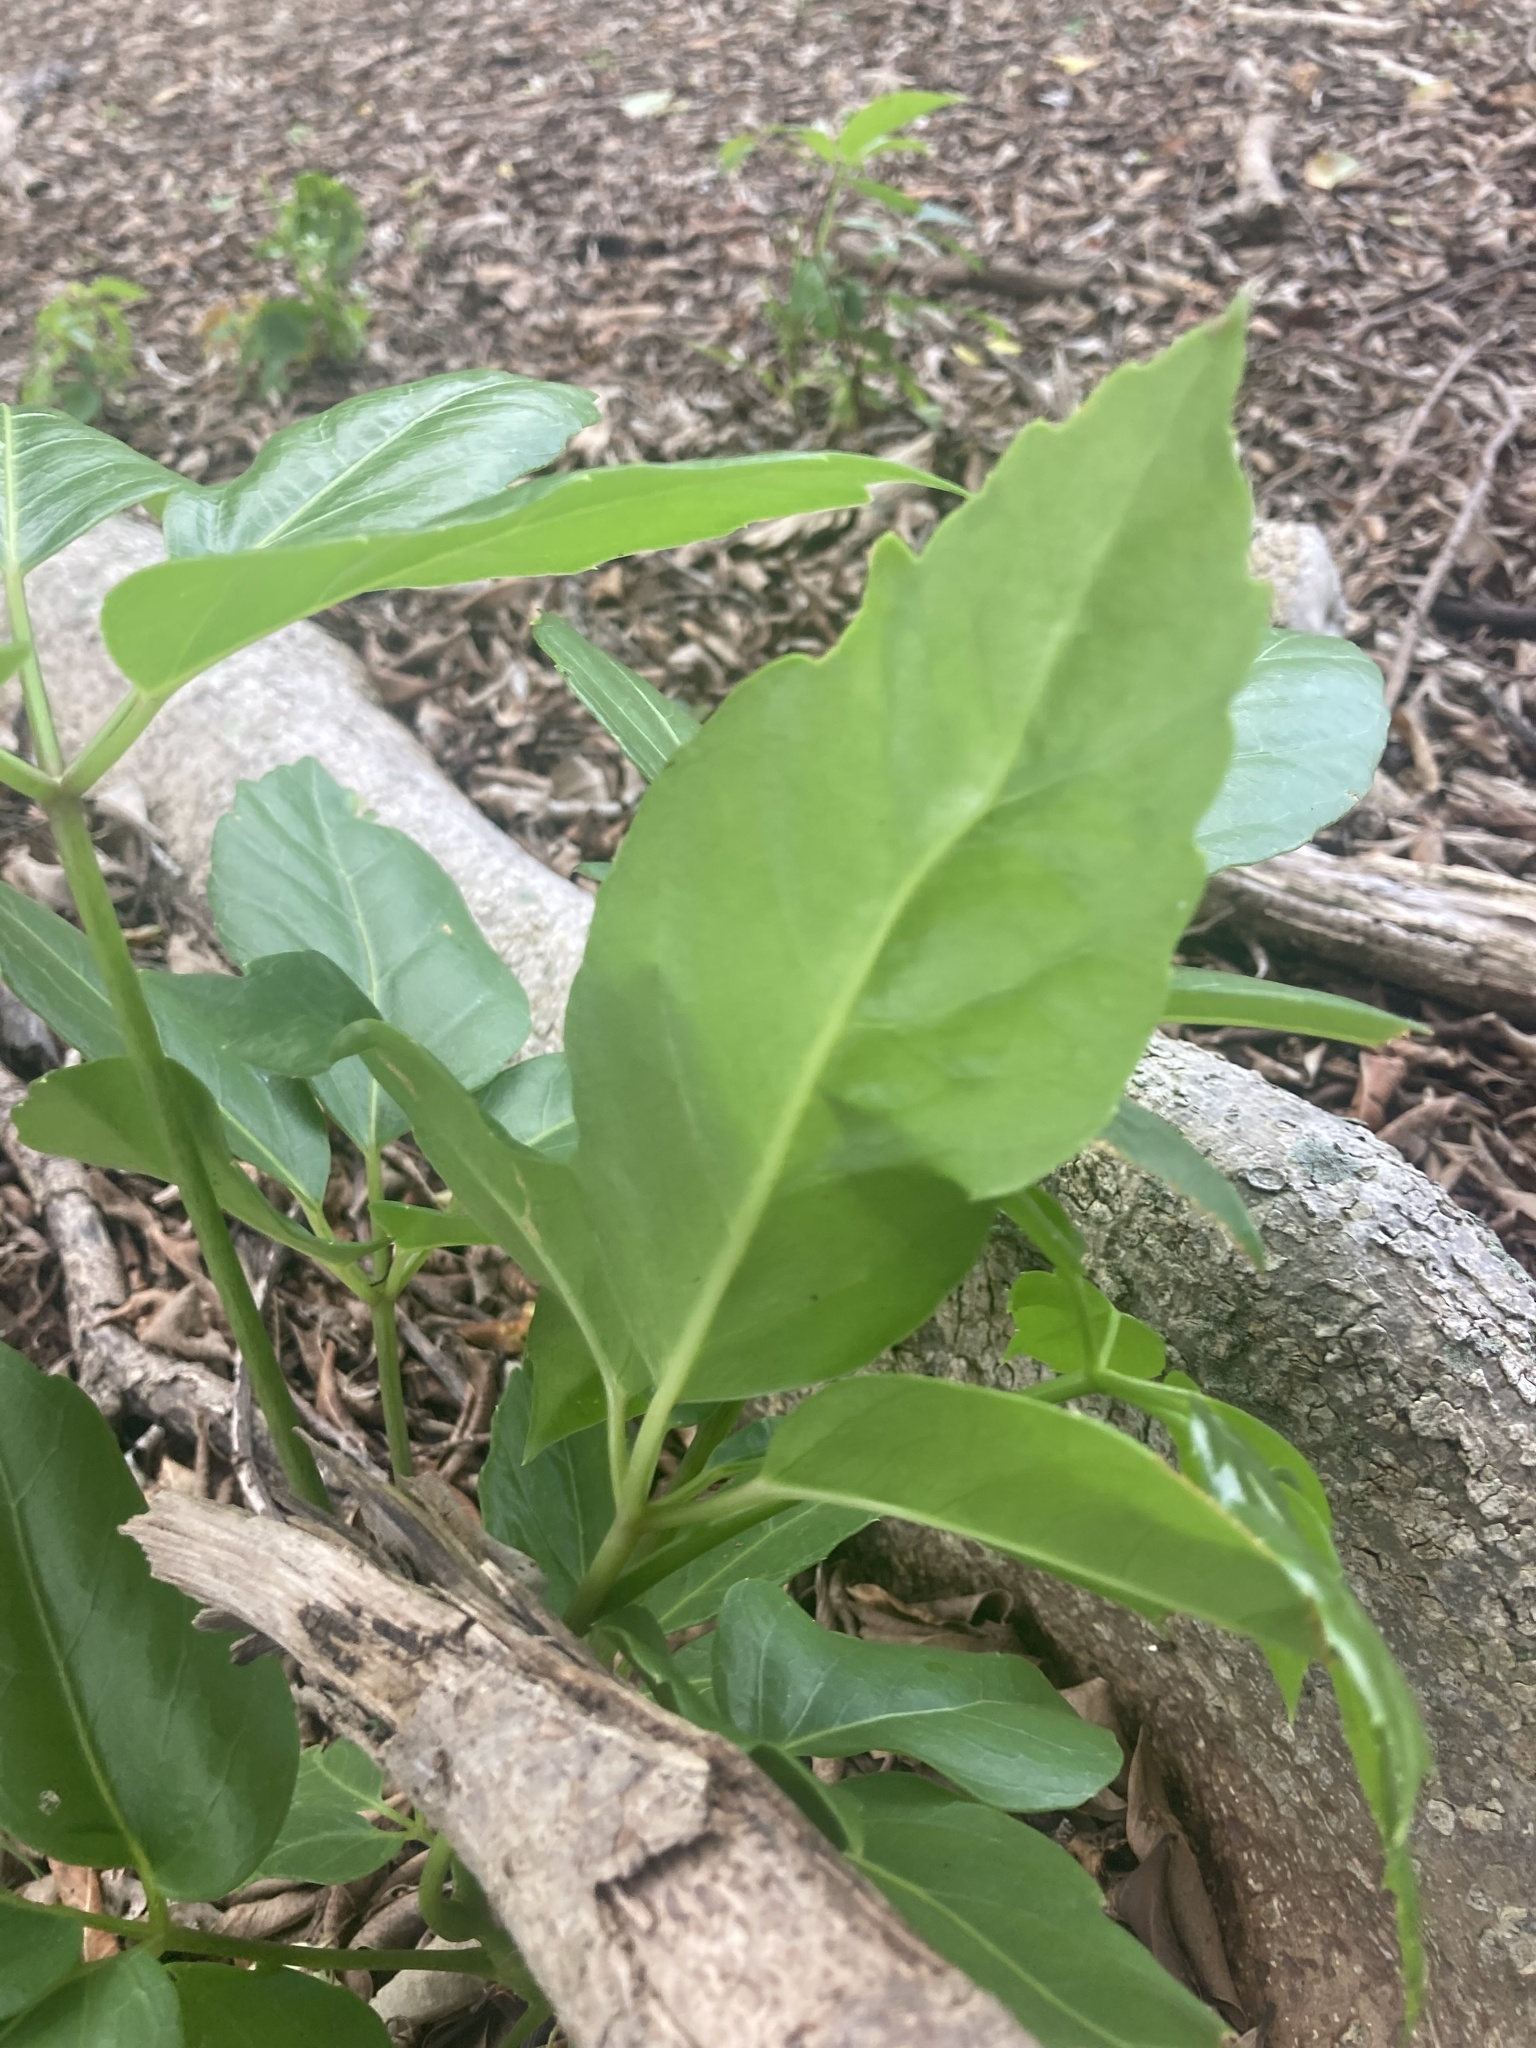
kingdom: Plantae
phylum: Tracheophyta
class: Magnoliopsida
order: Apiales
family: Araliaceae
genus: Heptapleurum
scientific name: Heptapleurum actinophyllum
